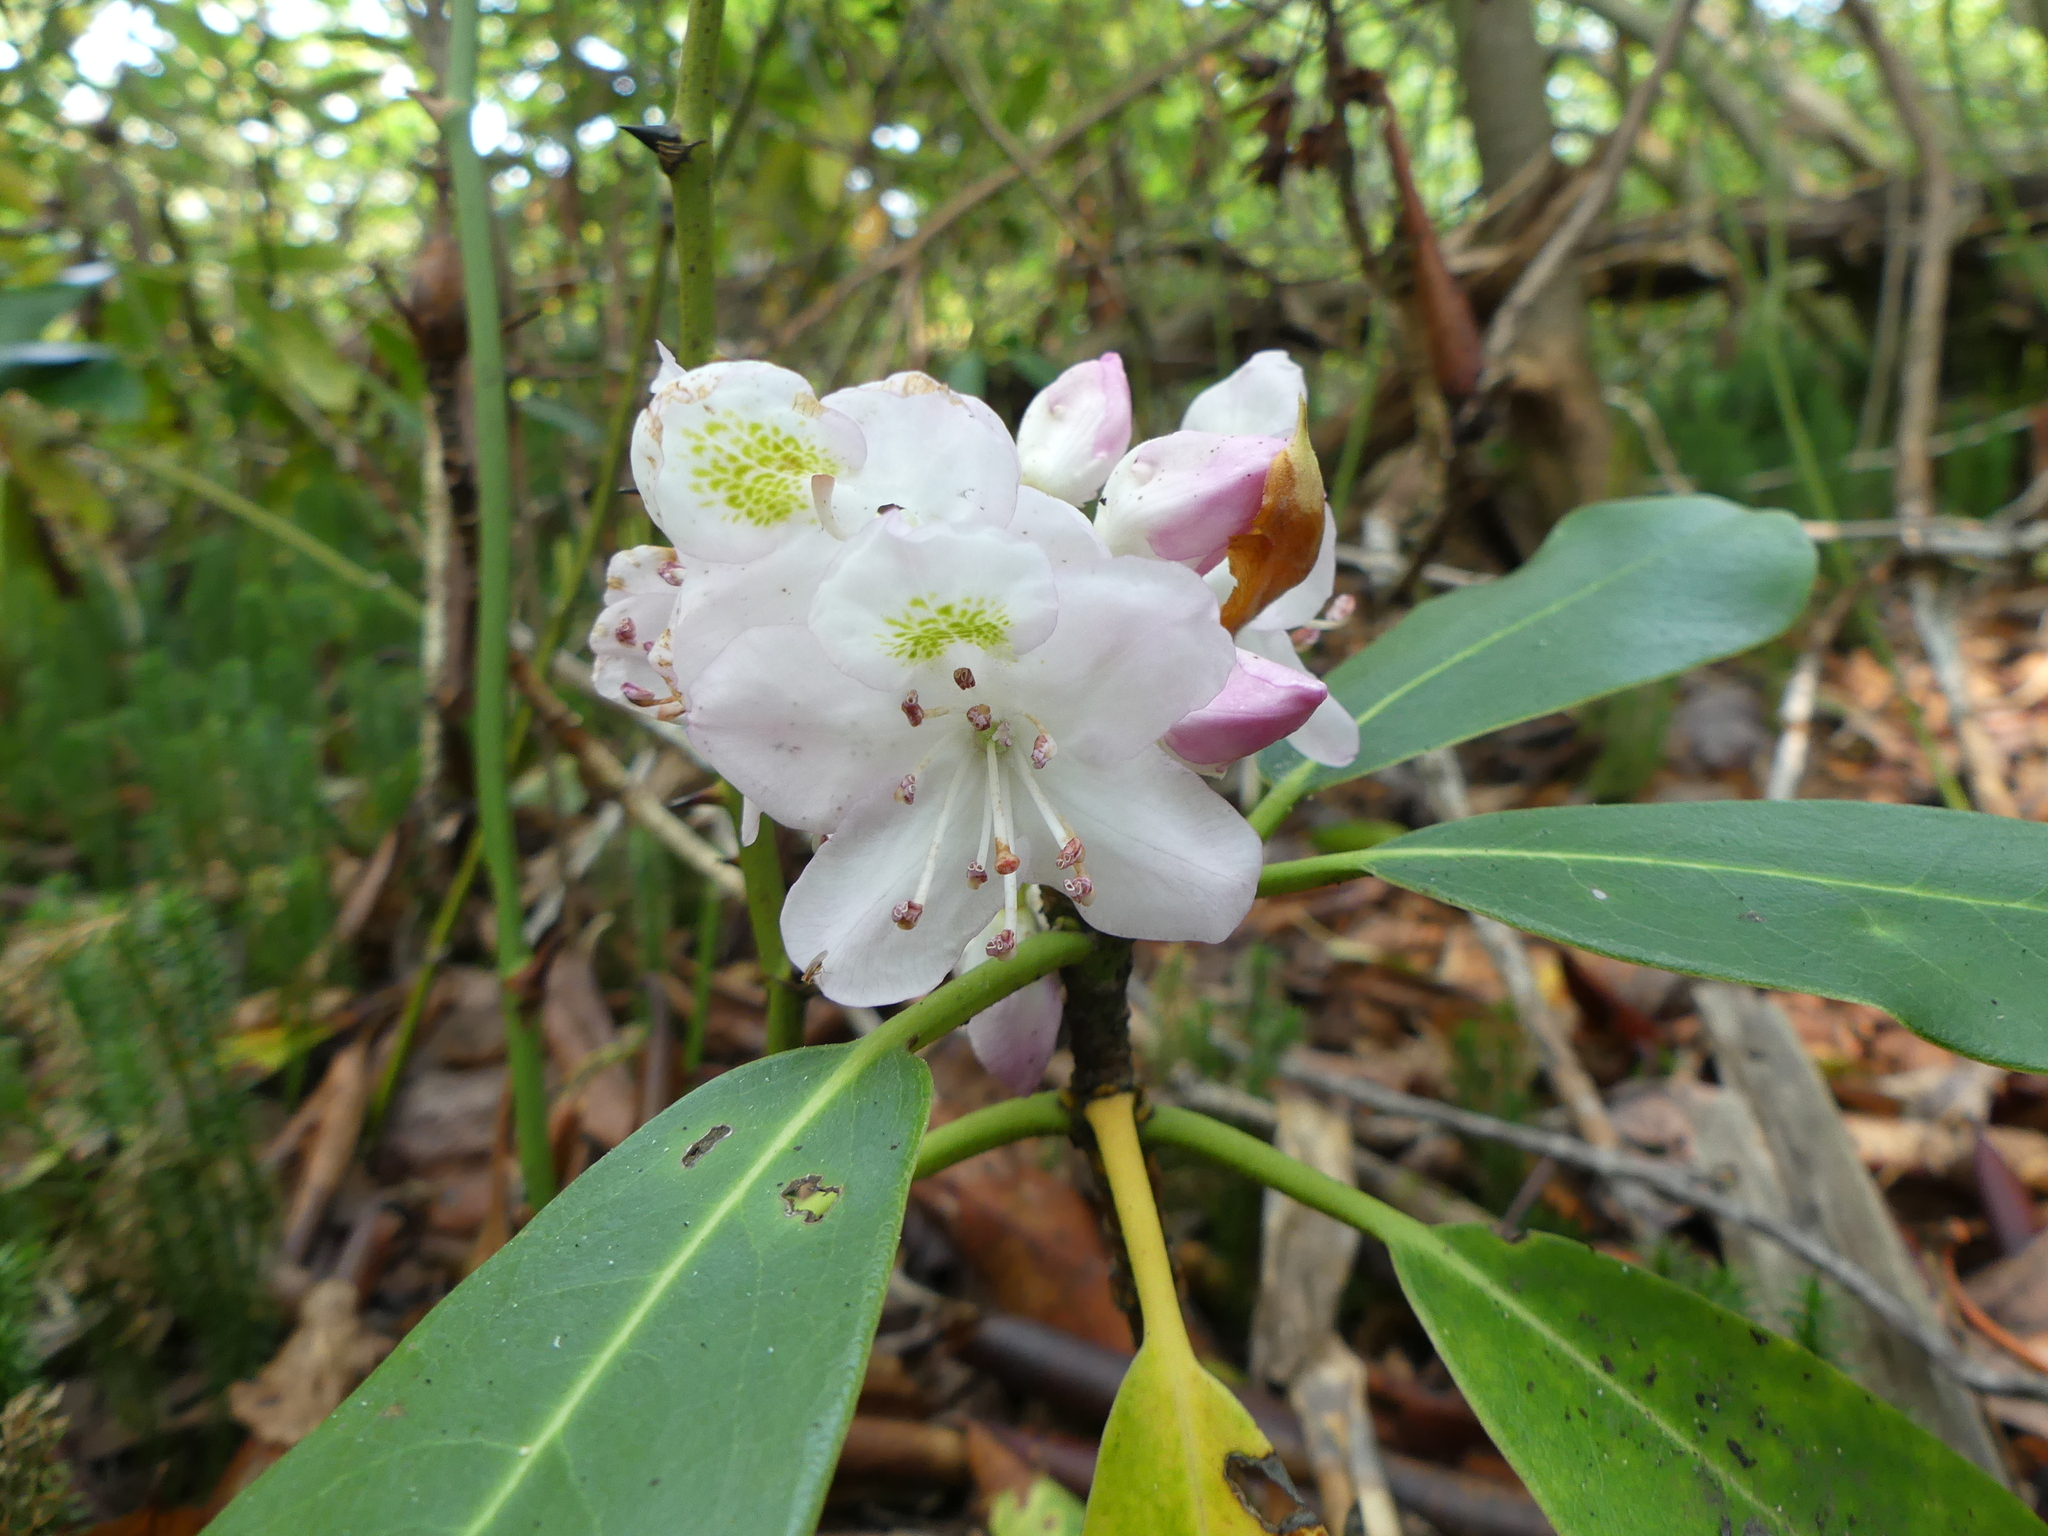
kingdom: Plantae
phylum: Tracheophyta
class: Magnoliopsida
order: Ericales
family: Ericaceae
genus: Rhododendron
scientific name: Rhododendron maximum
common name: Great rhododendron
